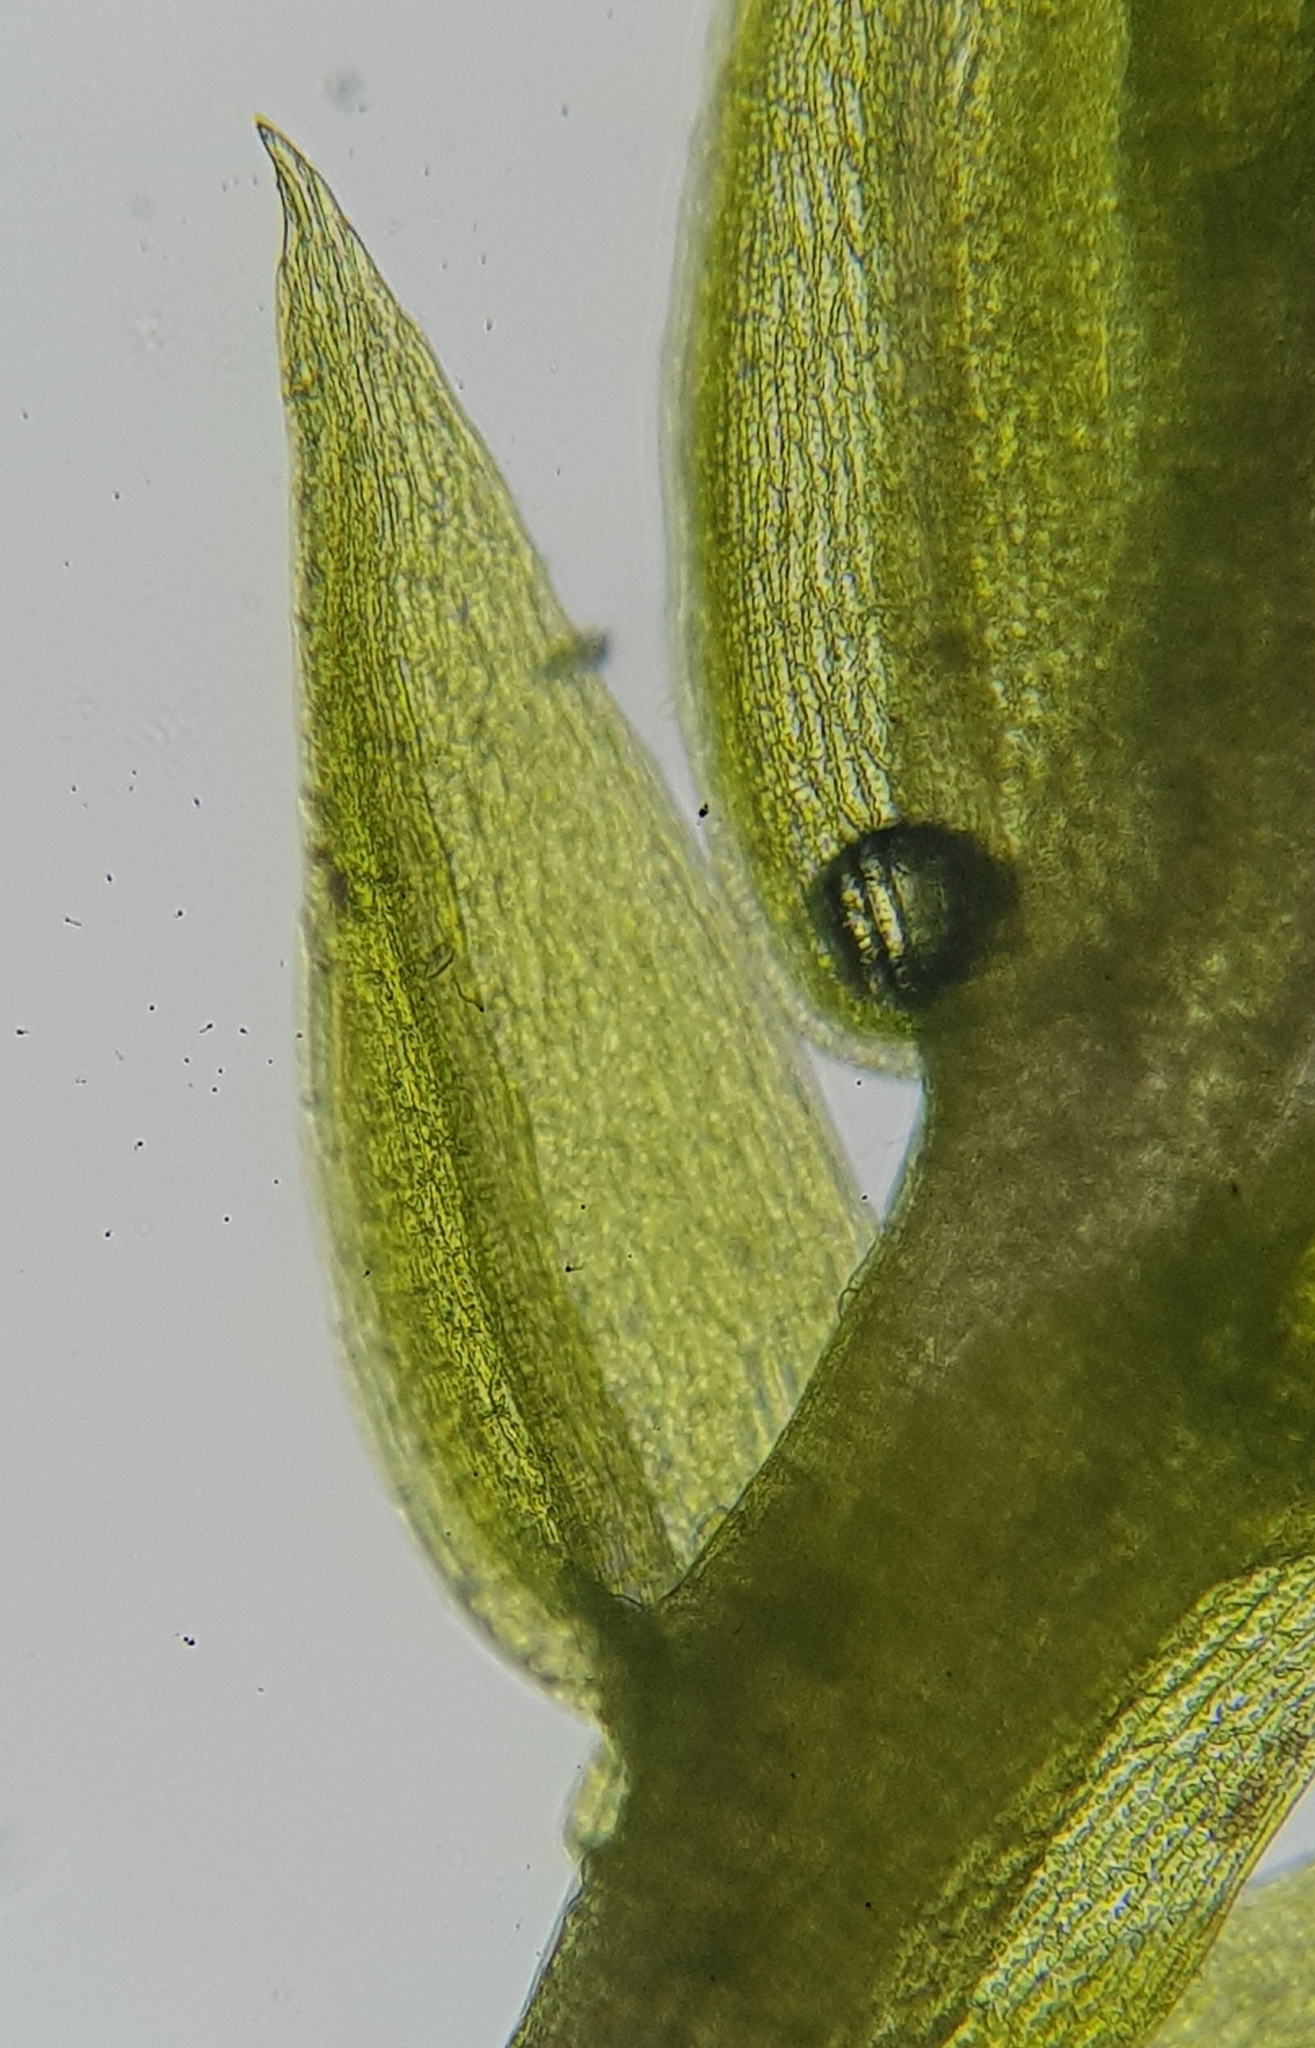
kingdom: Plantae
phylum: Bryophyta
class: Bryopsida
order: Bryales
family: Bryaceae
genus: Gemmabryum
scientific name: Gemmabryum dichotomum
